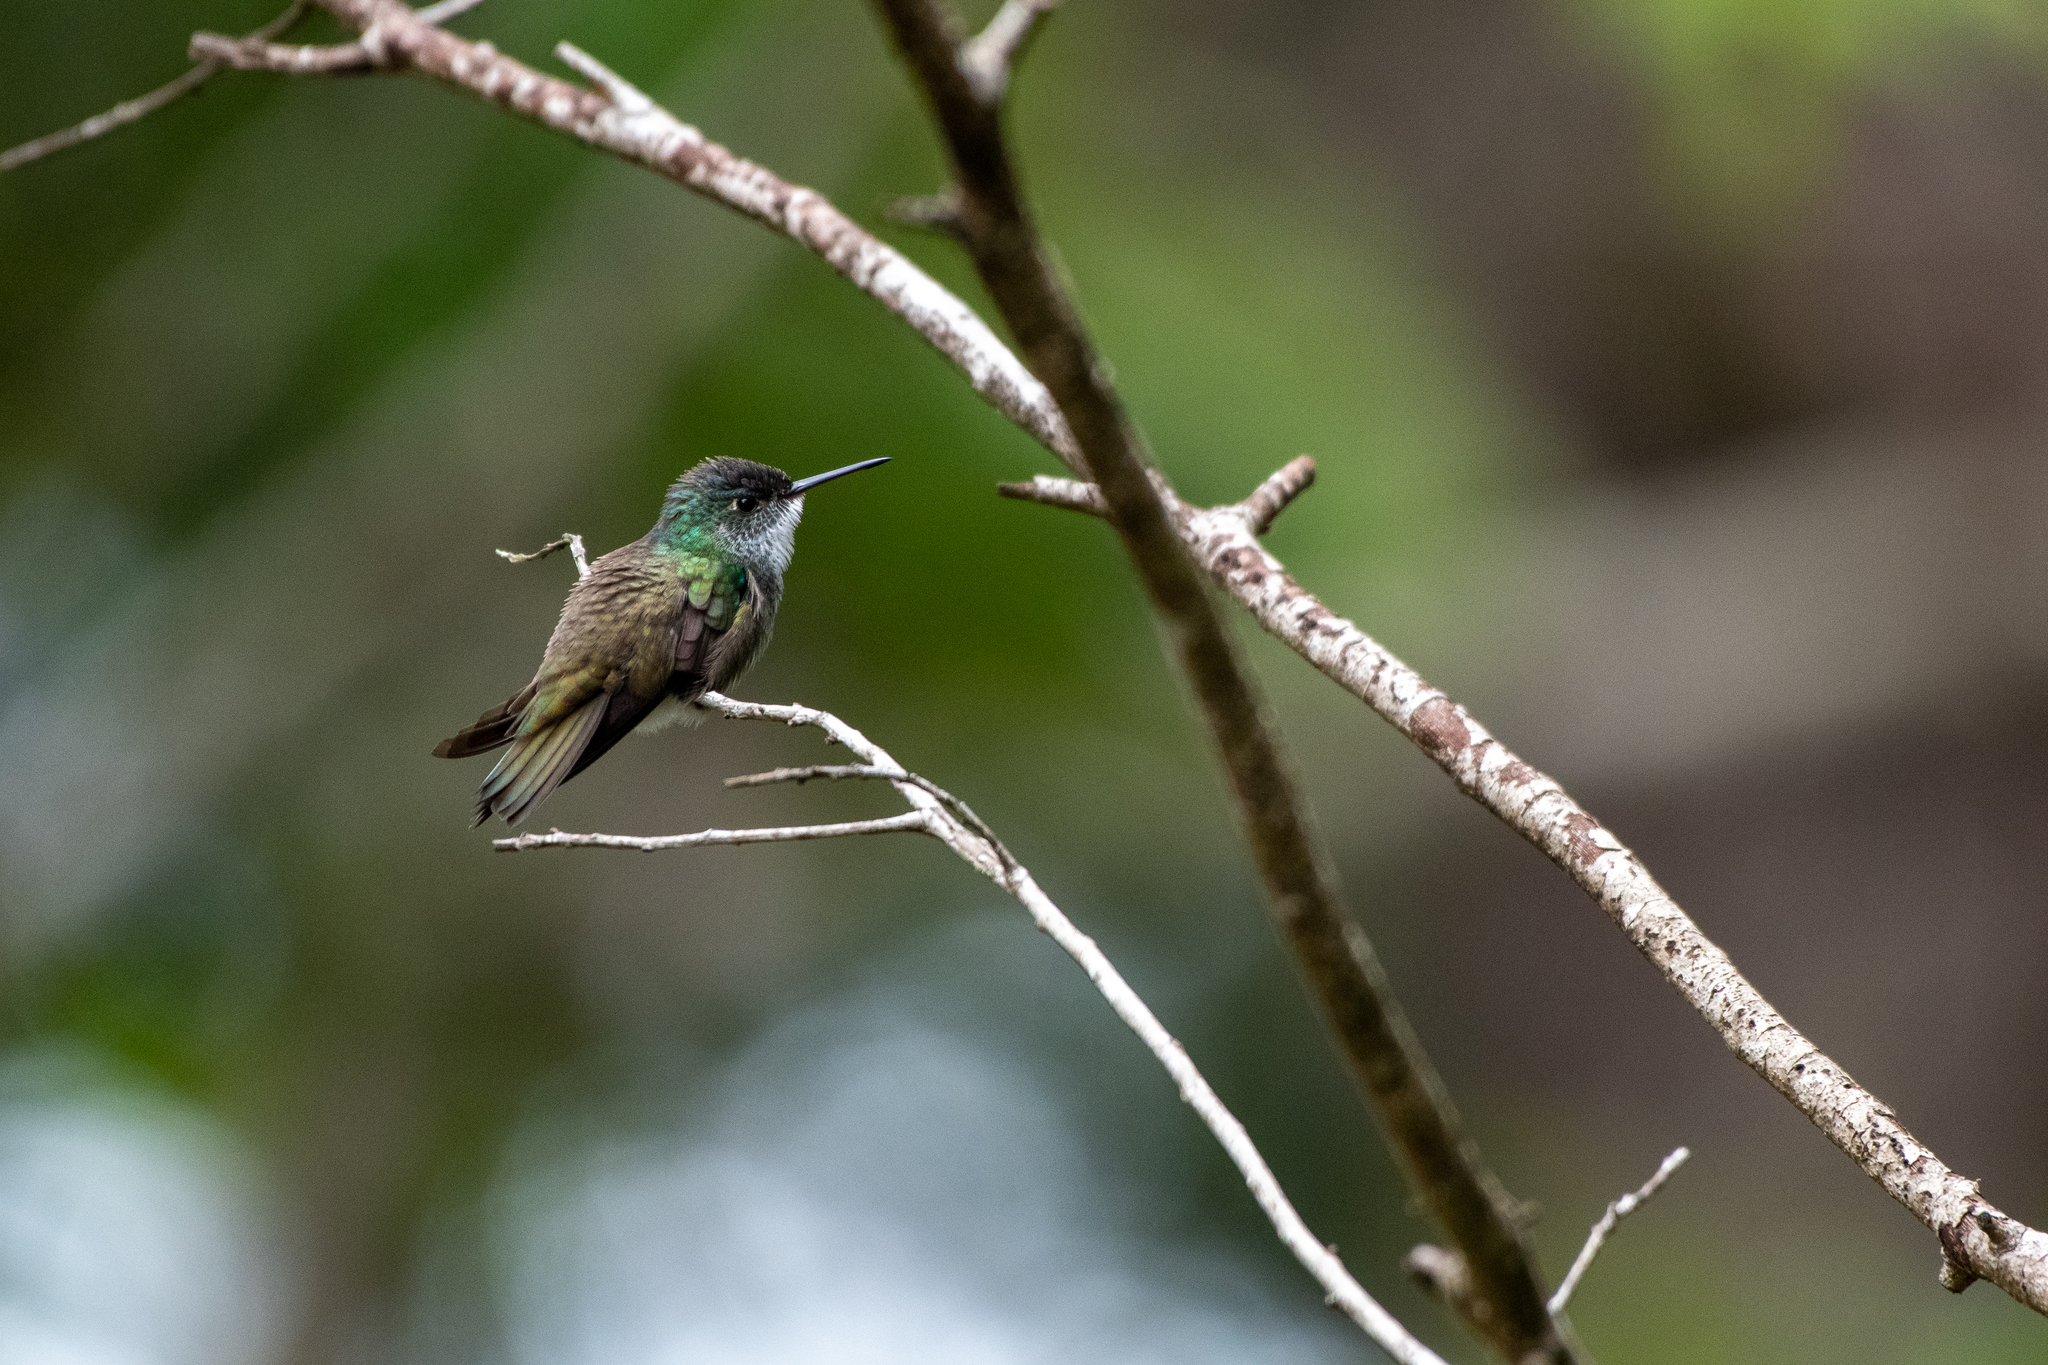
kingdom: Animalia
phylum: Chordata
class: Aves
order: Apodiformes
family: Trochilidae
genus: Saucerottia
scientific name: Saucerottia cyanocephala
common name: Azure-crowned hummingbird
